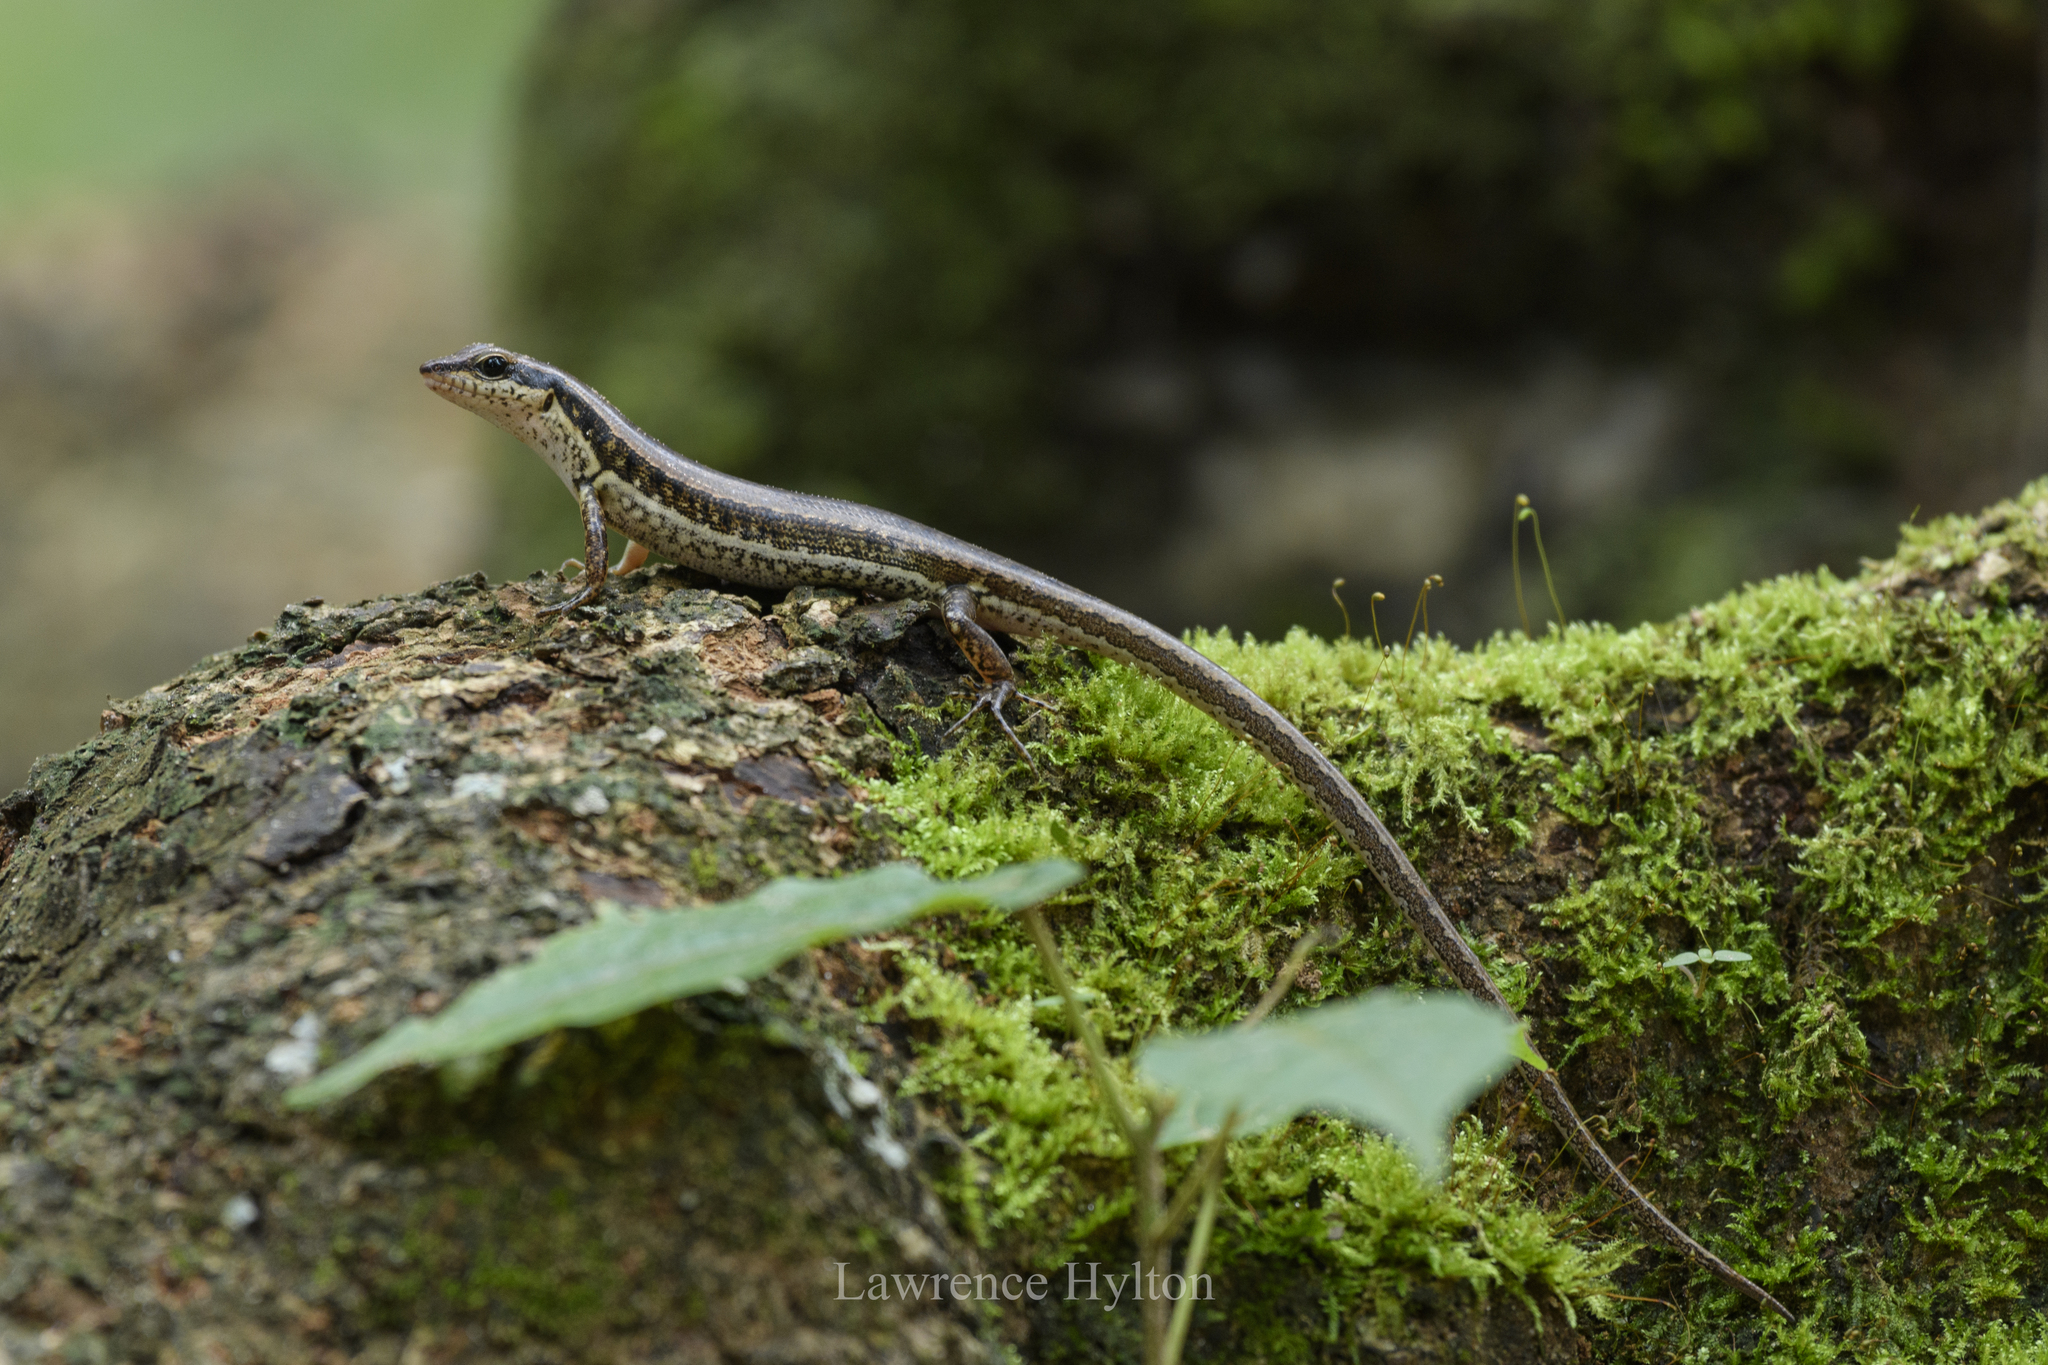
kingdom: Animalia
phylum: Chordata
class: Squamata
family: Scincidae
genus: Sphenomorphus
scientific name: Sphenomorphus maculatus
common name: Maculated forest skink
